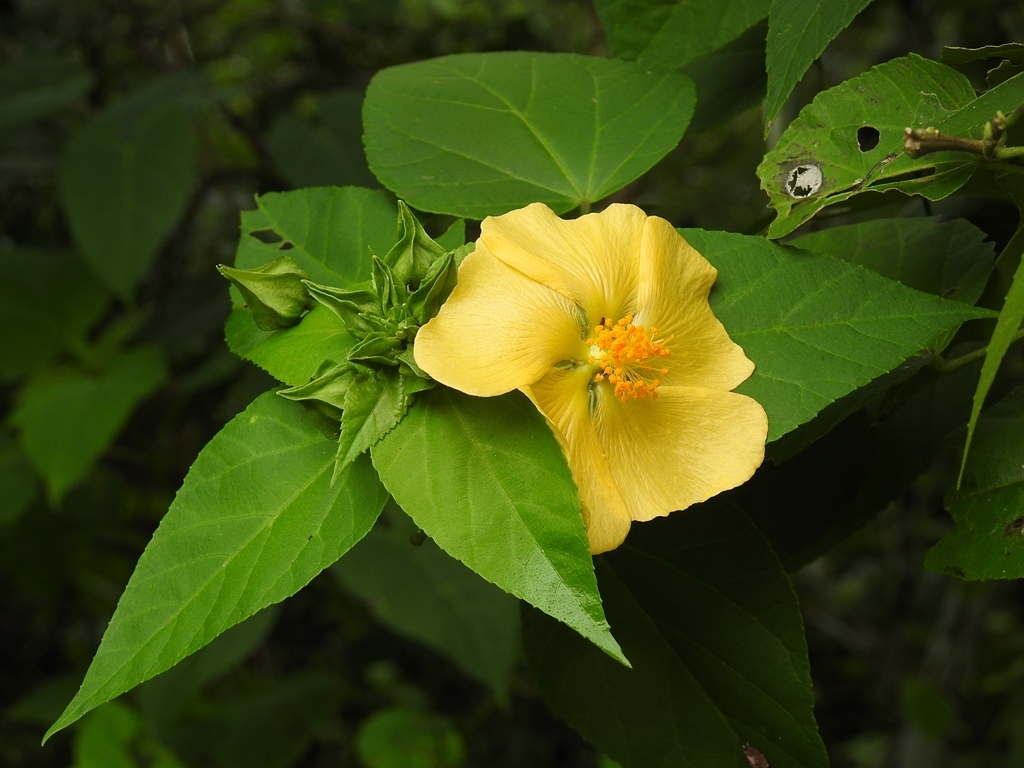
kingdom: Plantae
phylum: Tracheophyta
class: Magnoliopsida
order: Malvales
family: Malvaceae
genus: Dendrosida
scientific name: Dendrosida sharpiana
